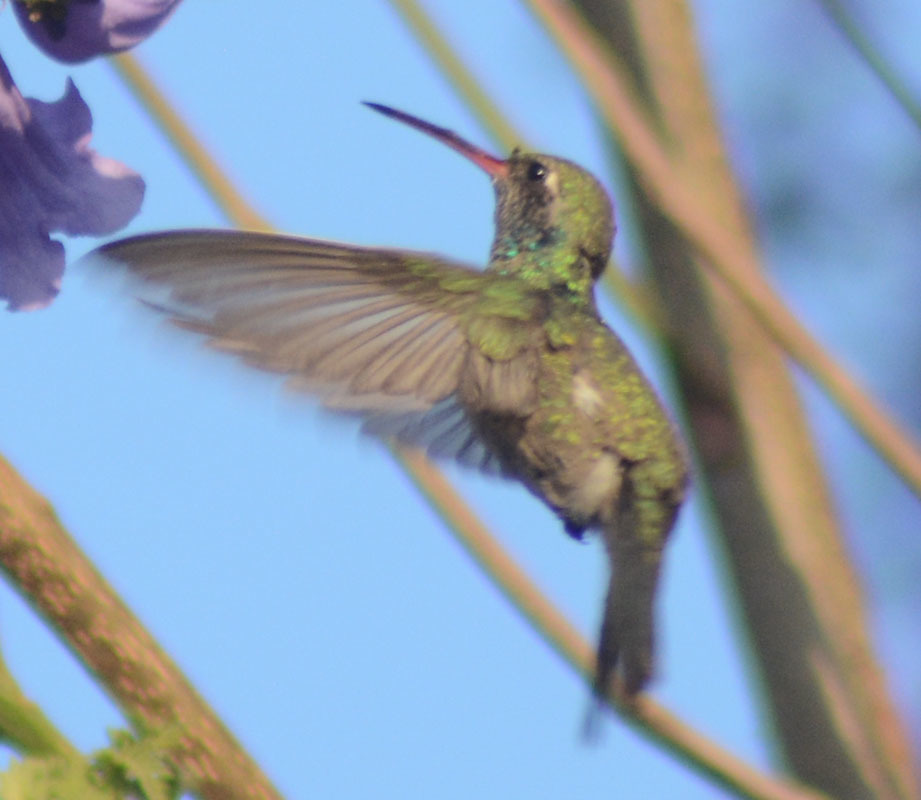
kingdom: Animalia
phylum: Chordata
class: Aves
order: Apodiformes
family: Trochilidae
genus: Cynanthus
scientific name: Cynanthus latirostris
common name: Broad-billed hummingbird
